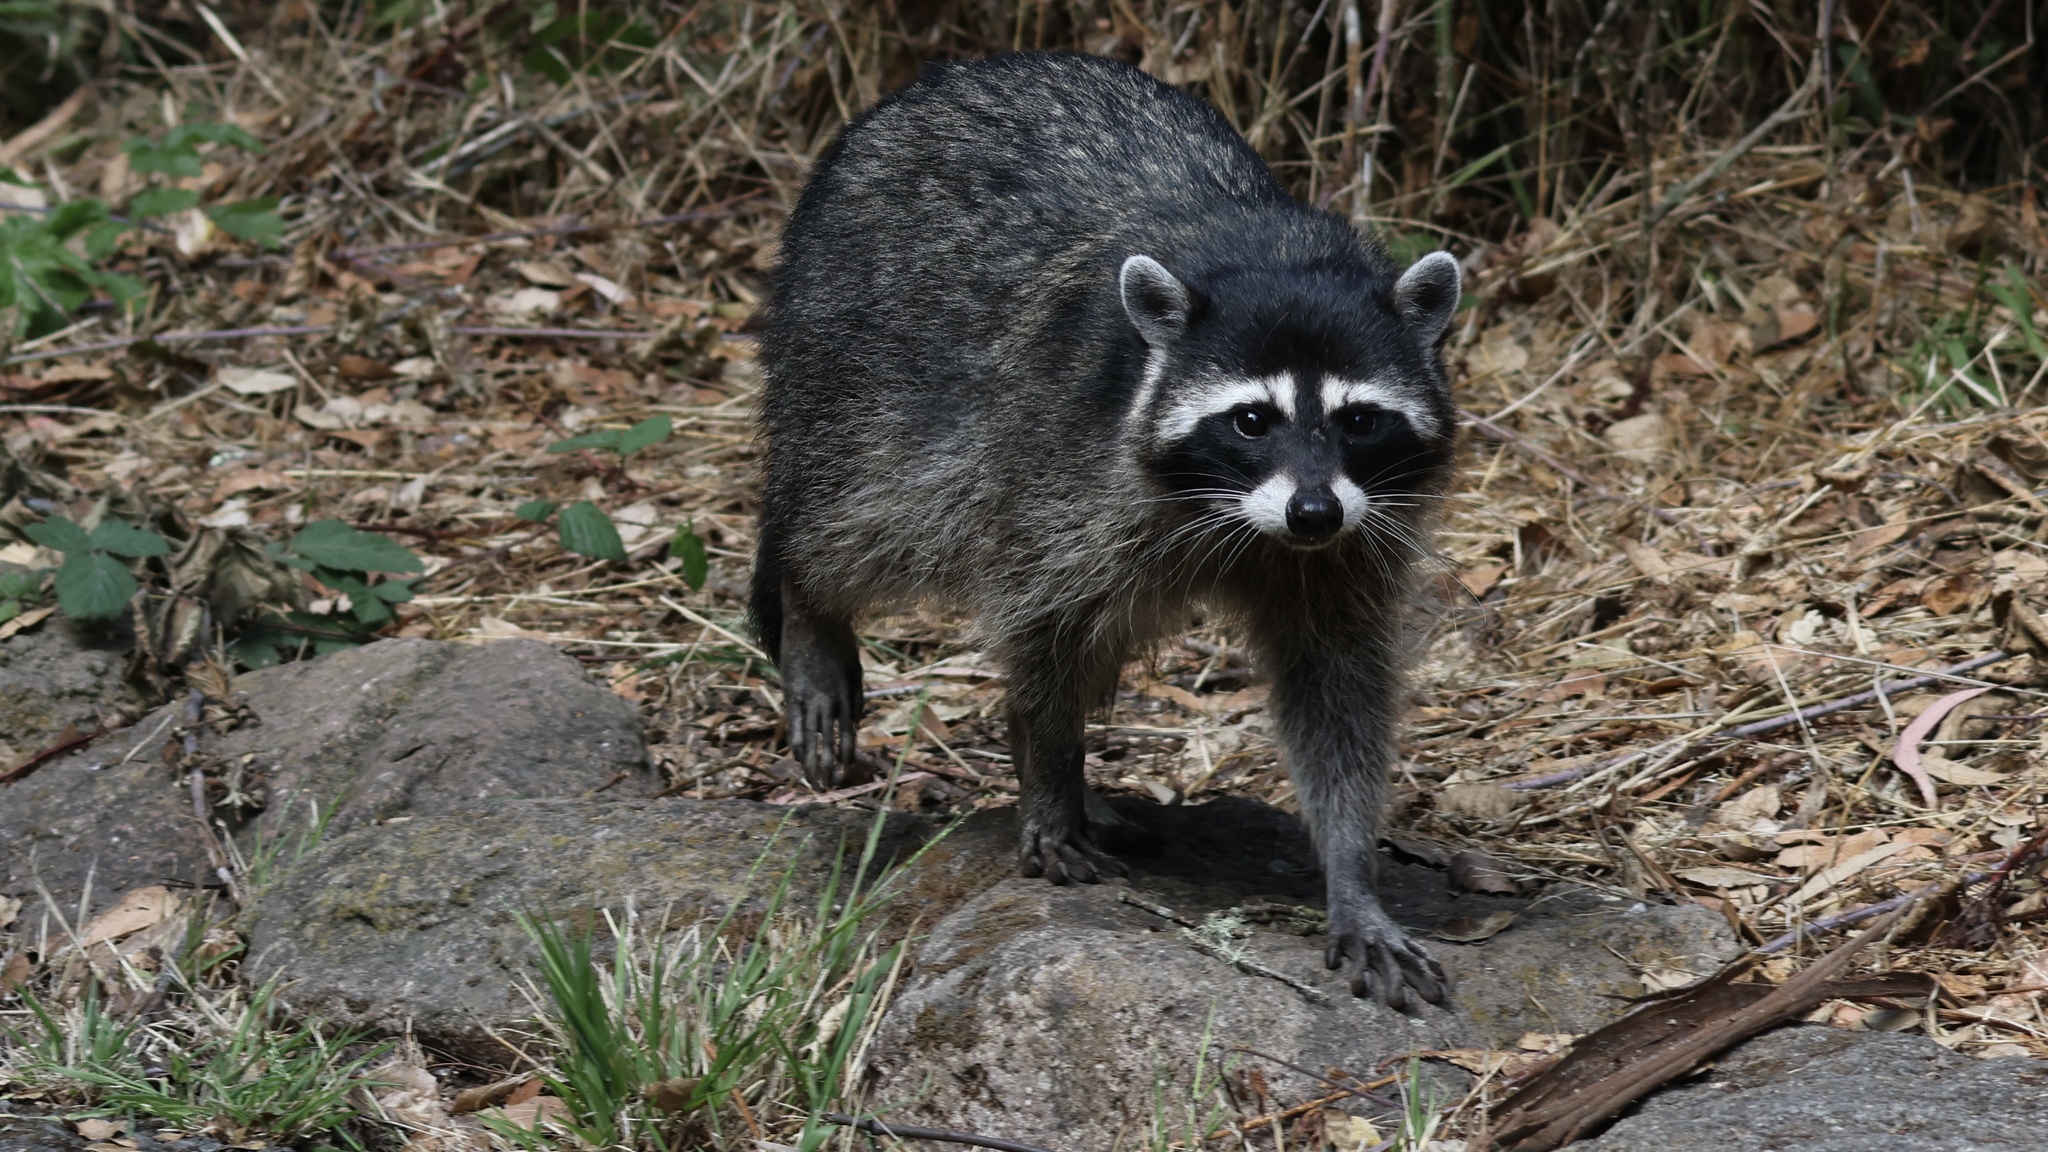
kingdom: Animalia
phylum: Chordata
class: Mammalia
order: Carnivora
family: Procyonidae
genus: Procyon
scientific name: Procyon lotor
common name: Raccoon
